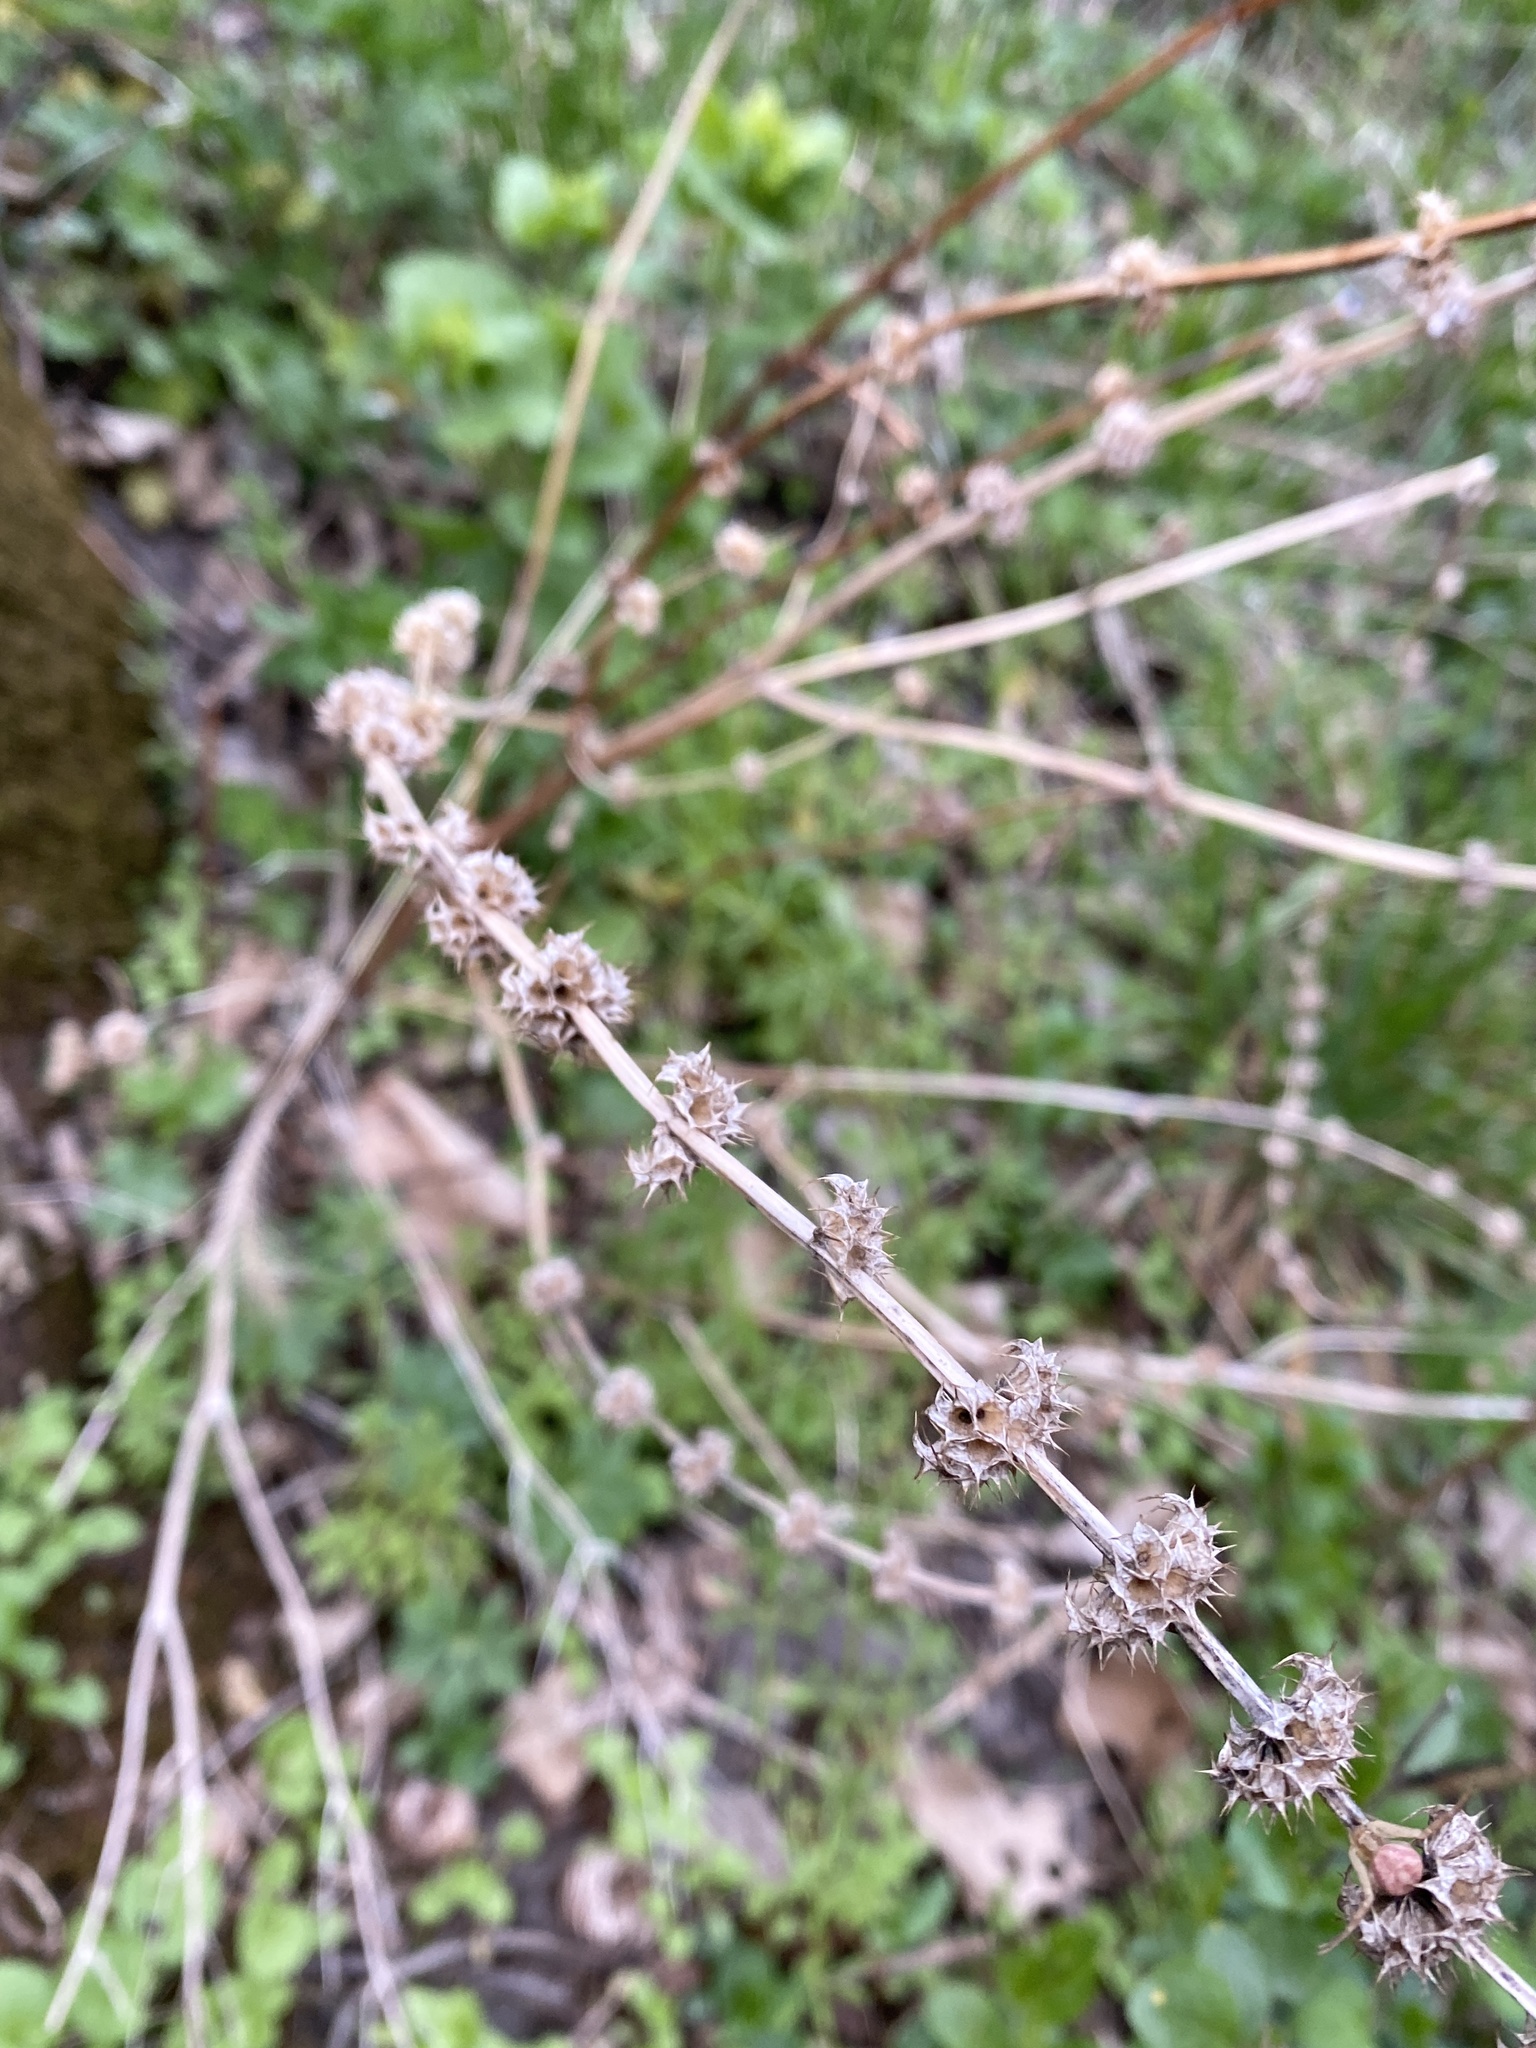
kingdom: Plantae
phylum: Tracheophyta
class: Magnoliopsida
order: Lamiales
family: Lamiaceae
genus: Leonurus
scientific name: Leonurus cardiaca
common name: Motherwort
